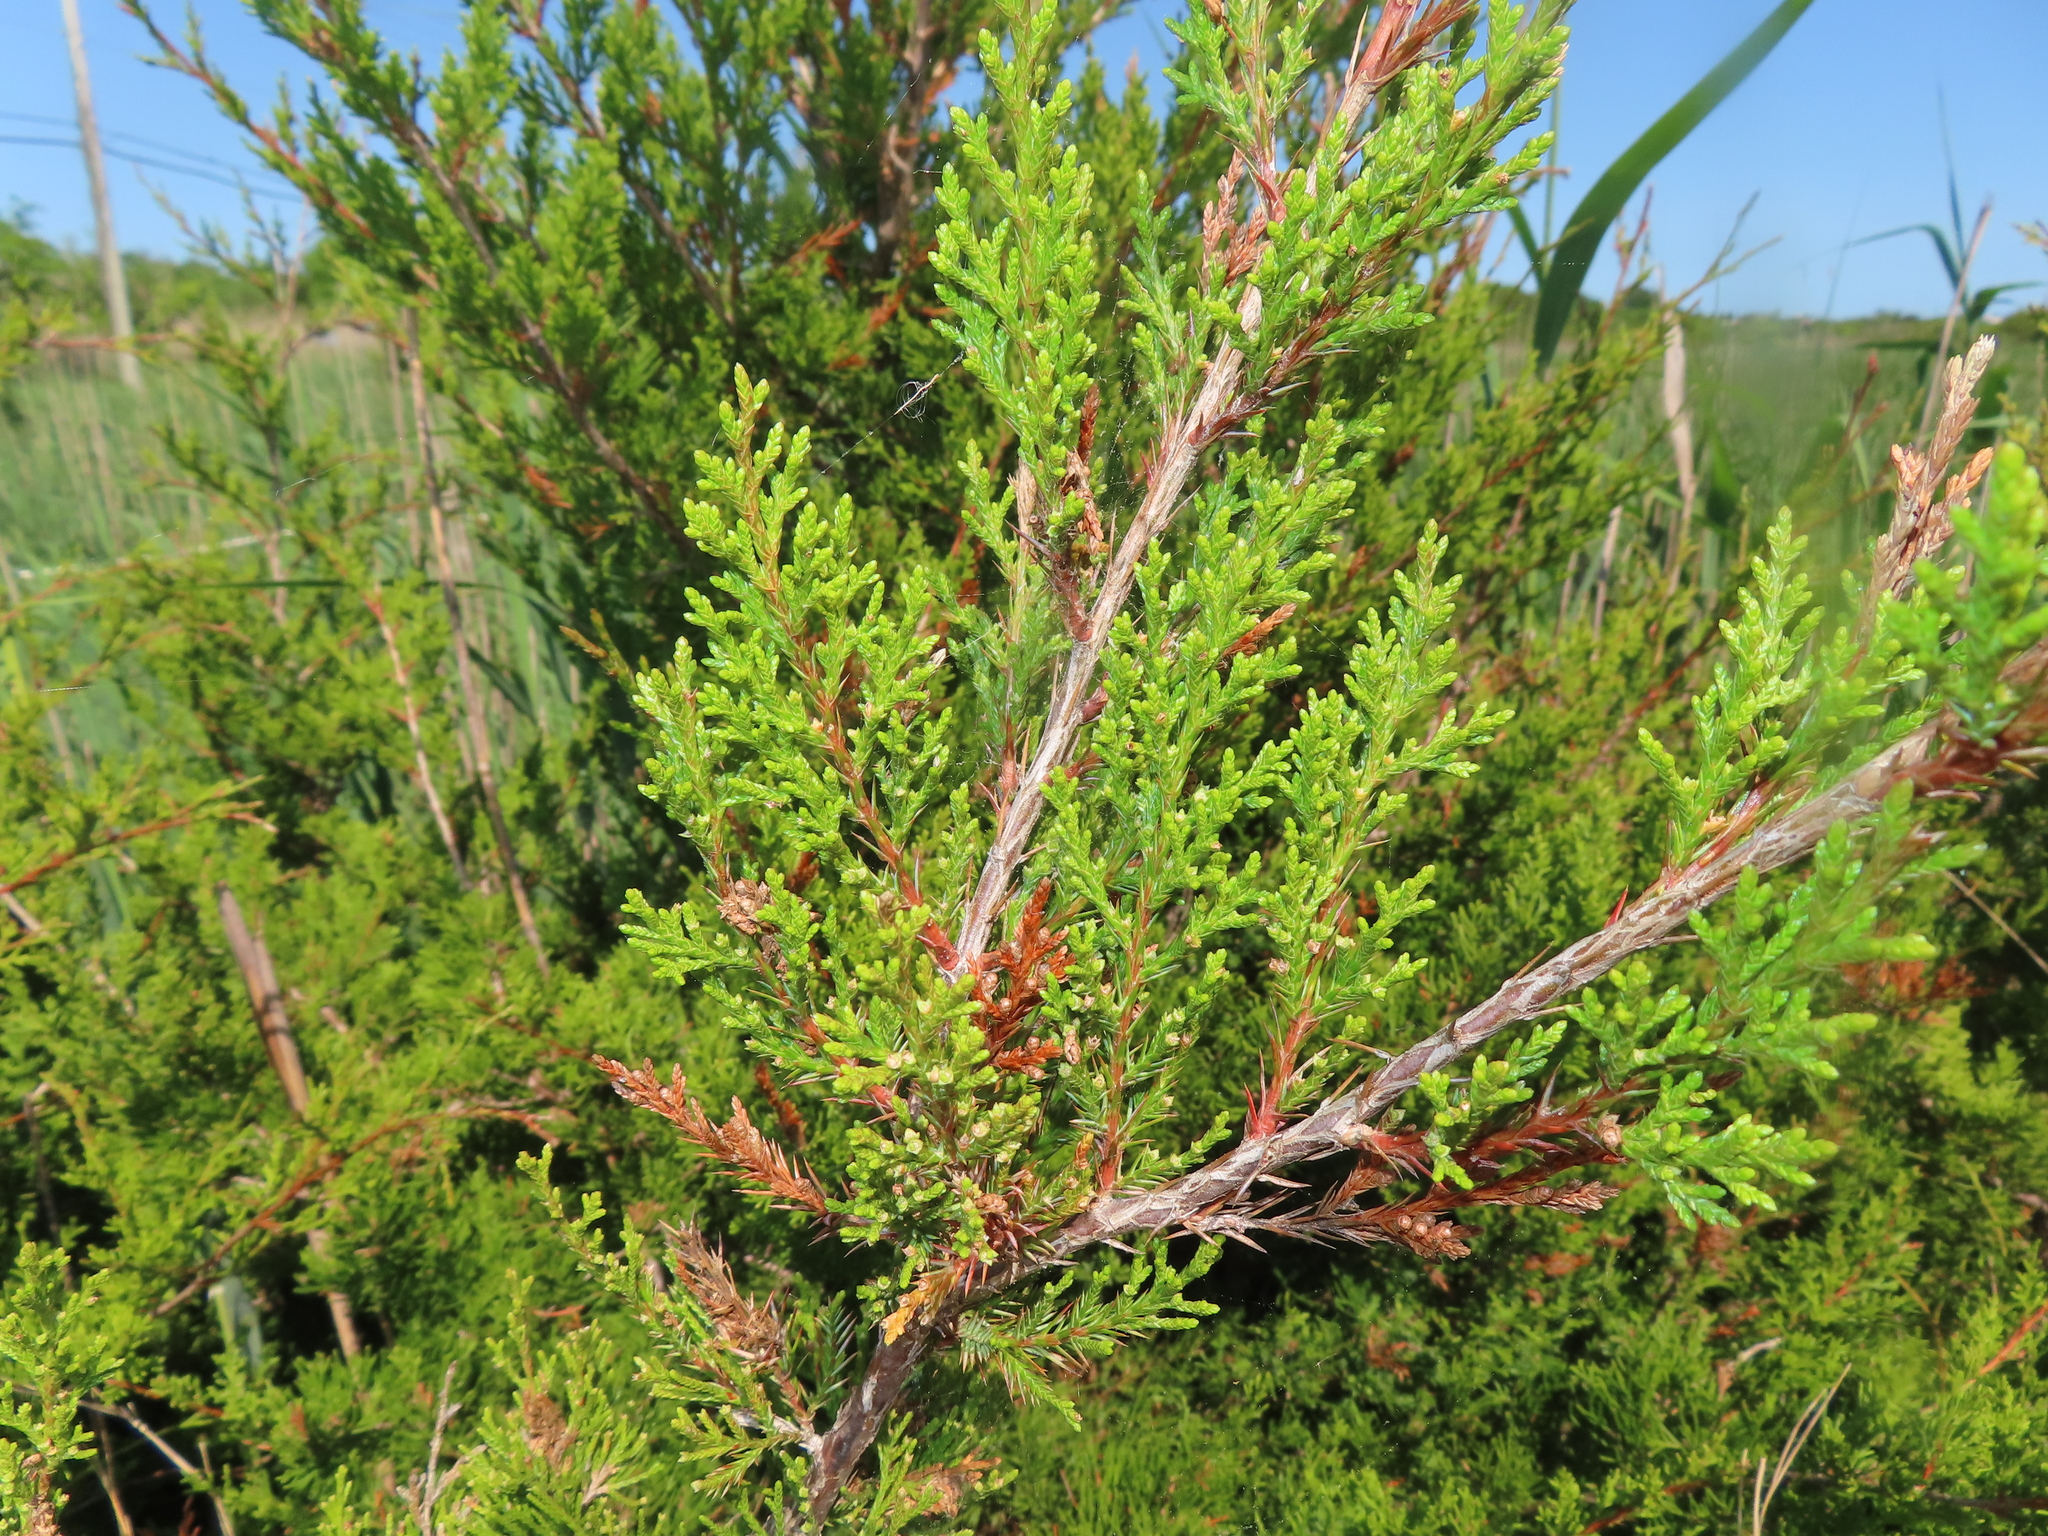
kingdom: Plantae
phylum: Tracheophyta
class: Pinopsida
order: Pinales
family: Cupressaceae
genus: Juniperus
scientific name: Juniperus virginiana
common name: Red juniper
